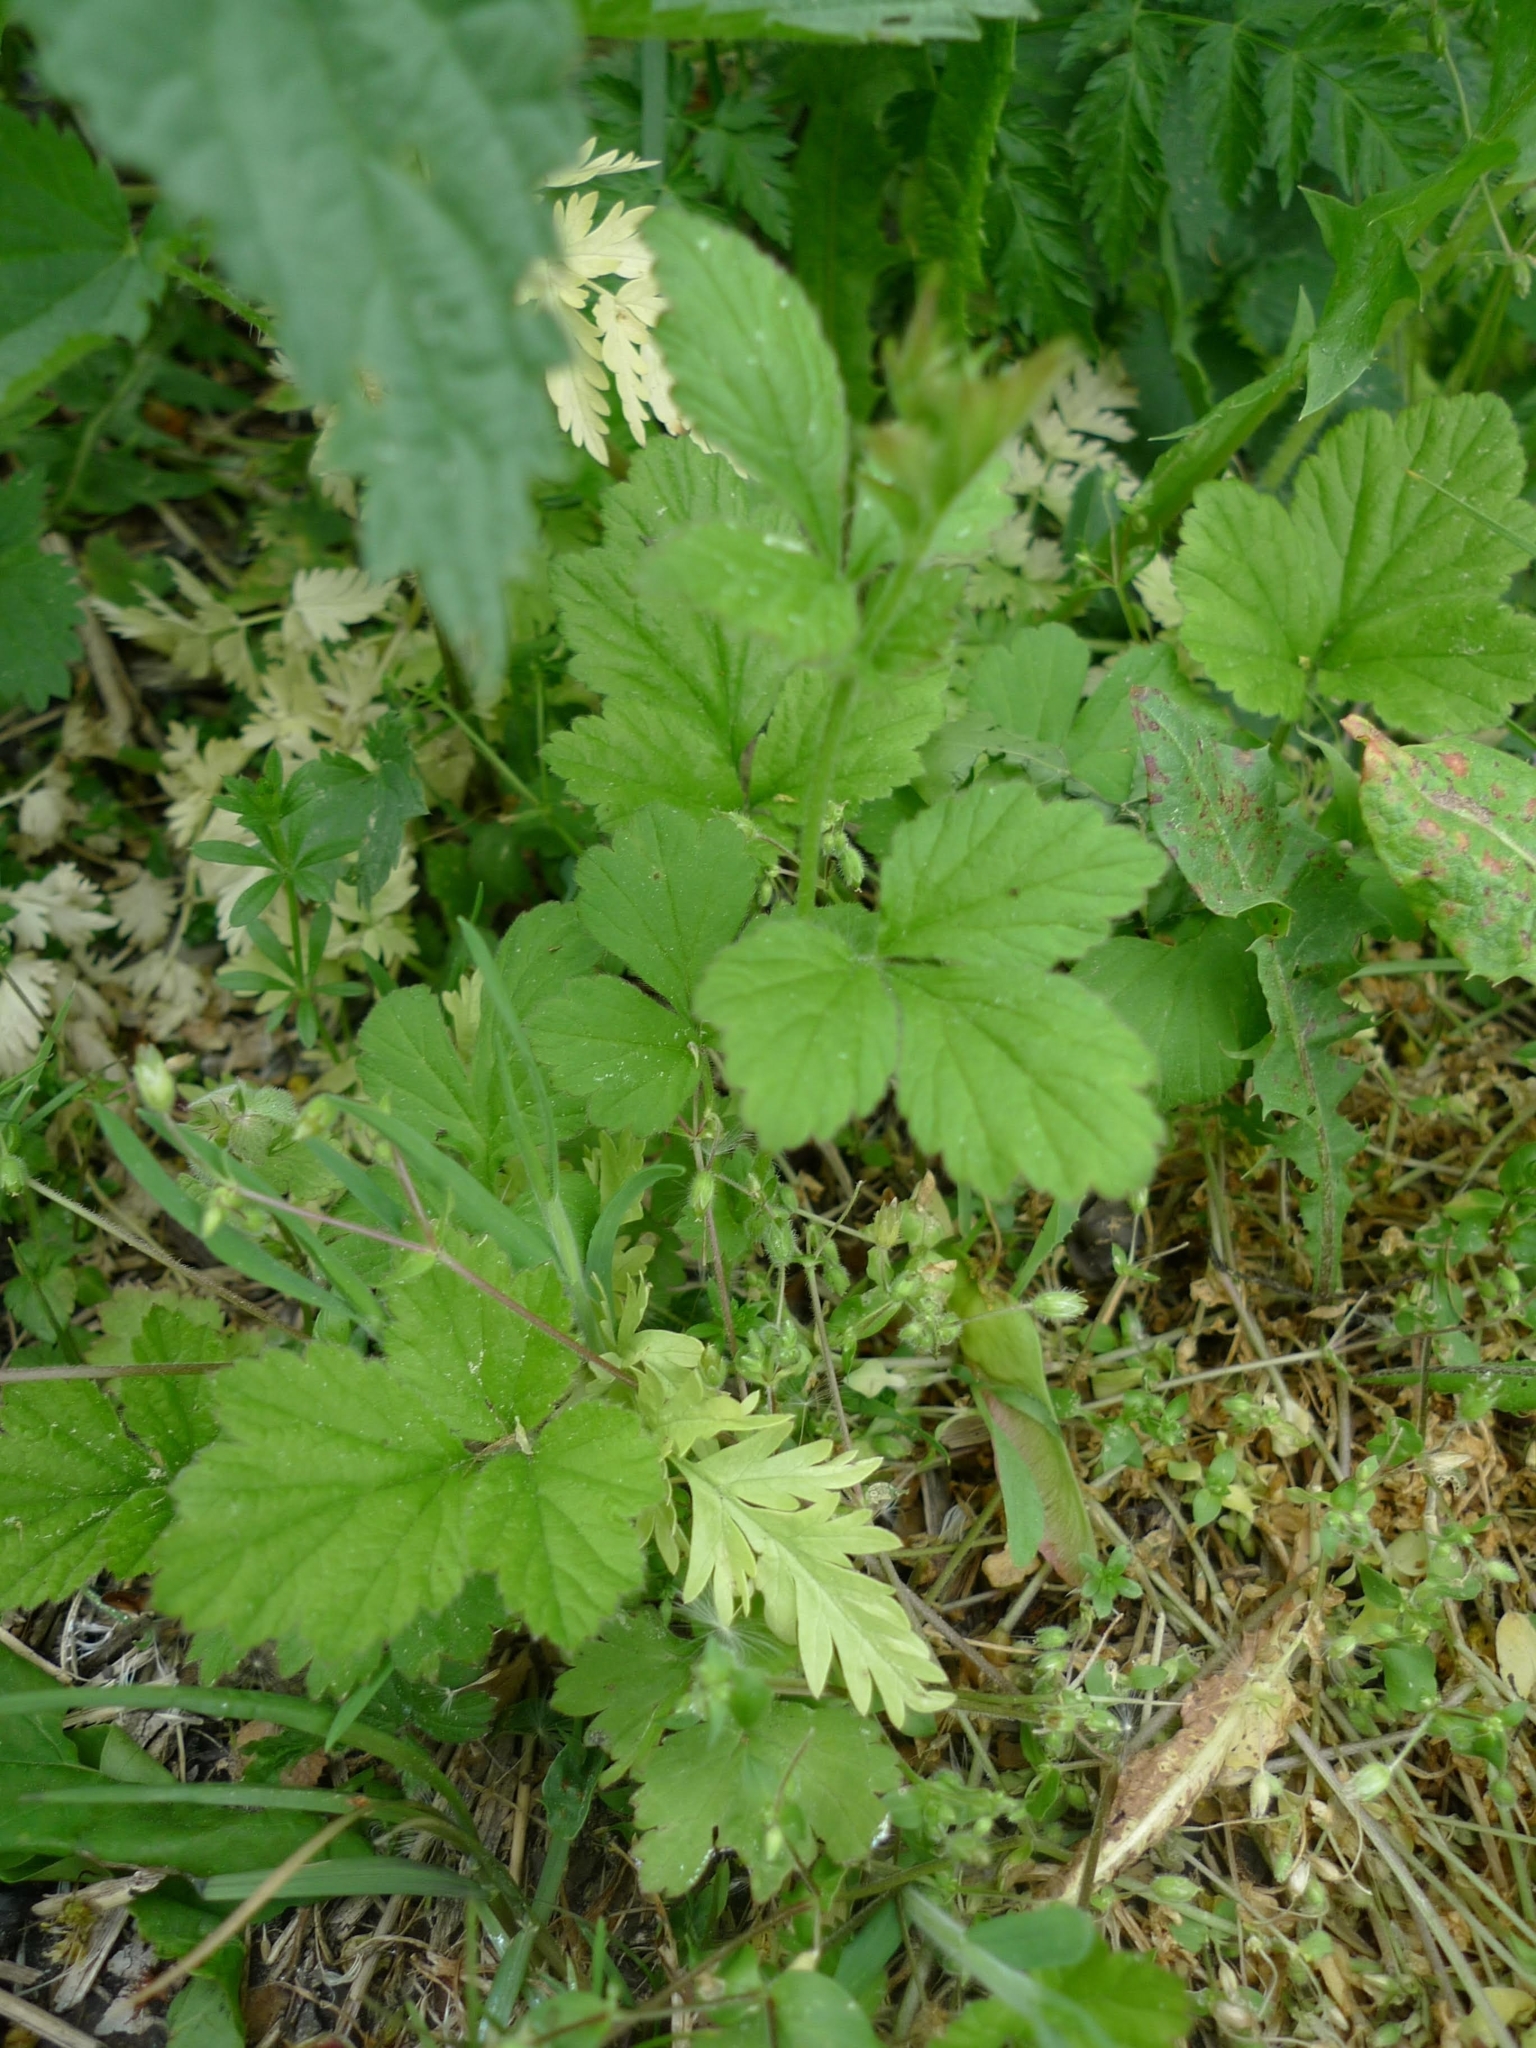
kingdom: Plantae
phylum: Tracheophyta
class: Magnoliopsida
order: Rosales
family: Rosaceae
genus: Geum
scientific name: Geum urbanum
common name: Wood avens
